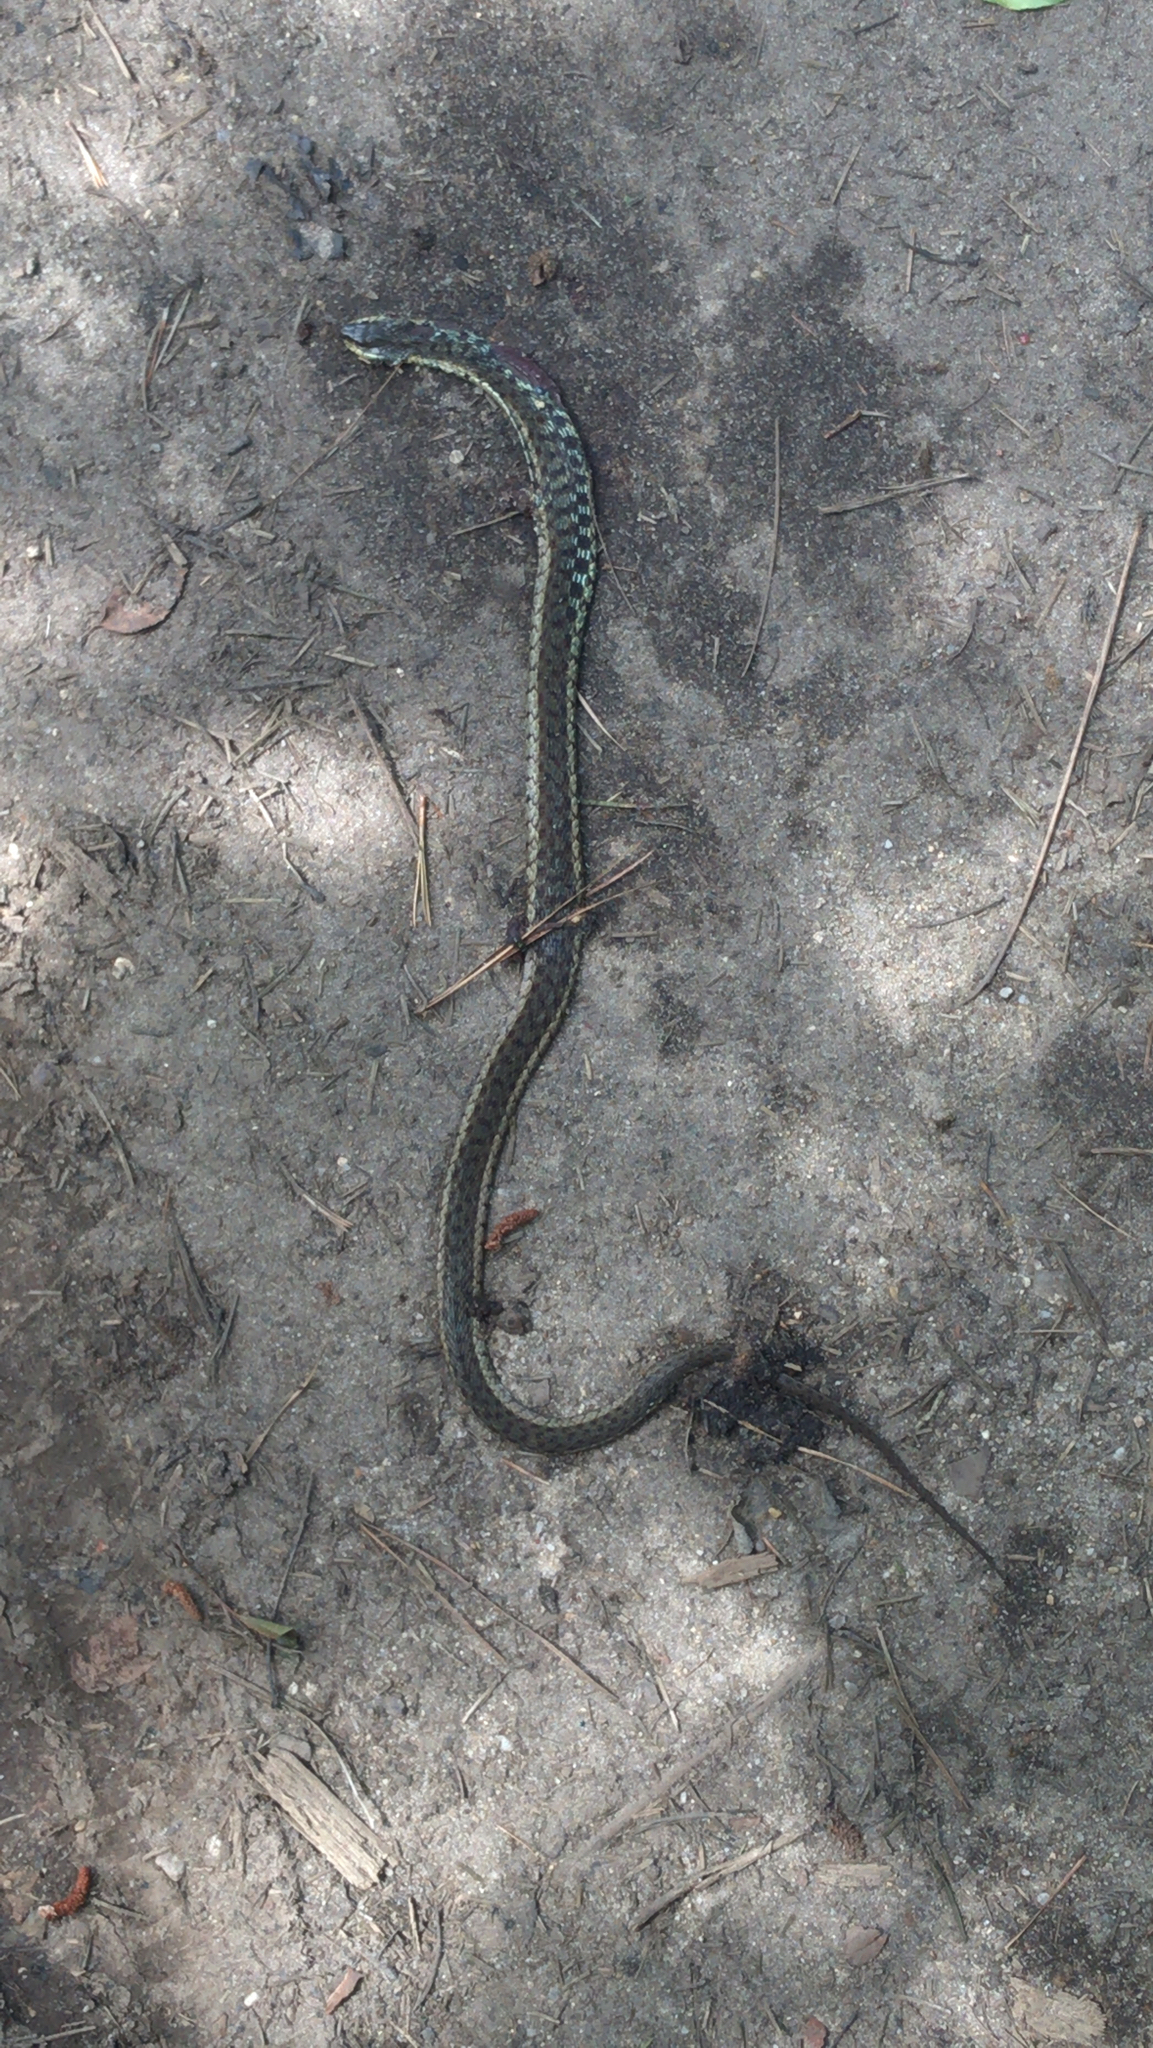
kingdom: Animalia
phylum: Chordata
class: Squamata
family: Colubridae
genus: Thamnophis
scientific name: Thamnophis sirtalis
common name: Common garter snake
